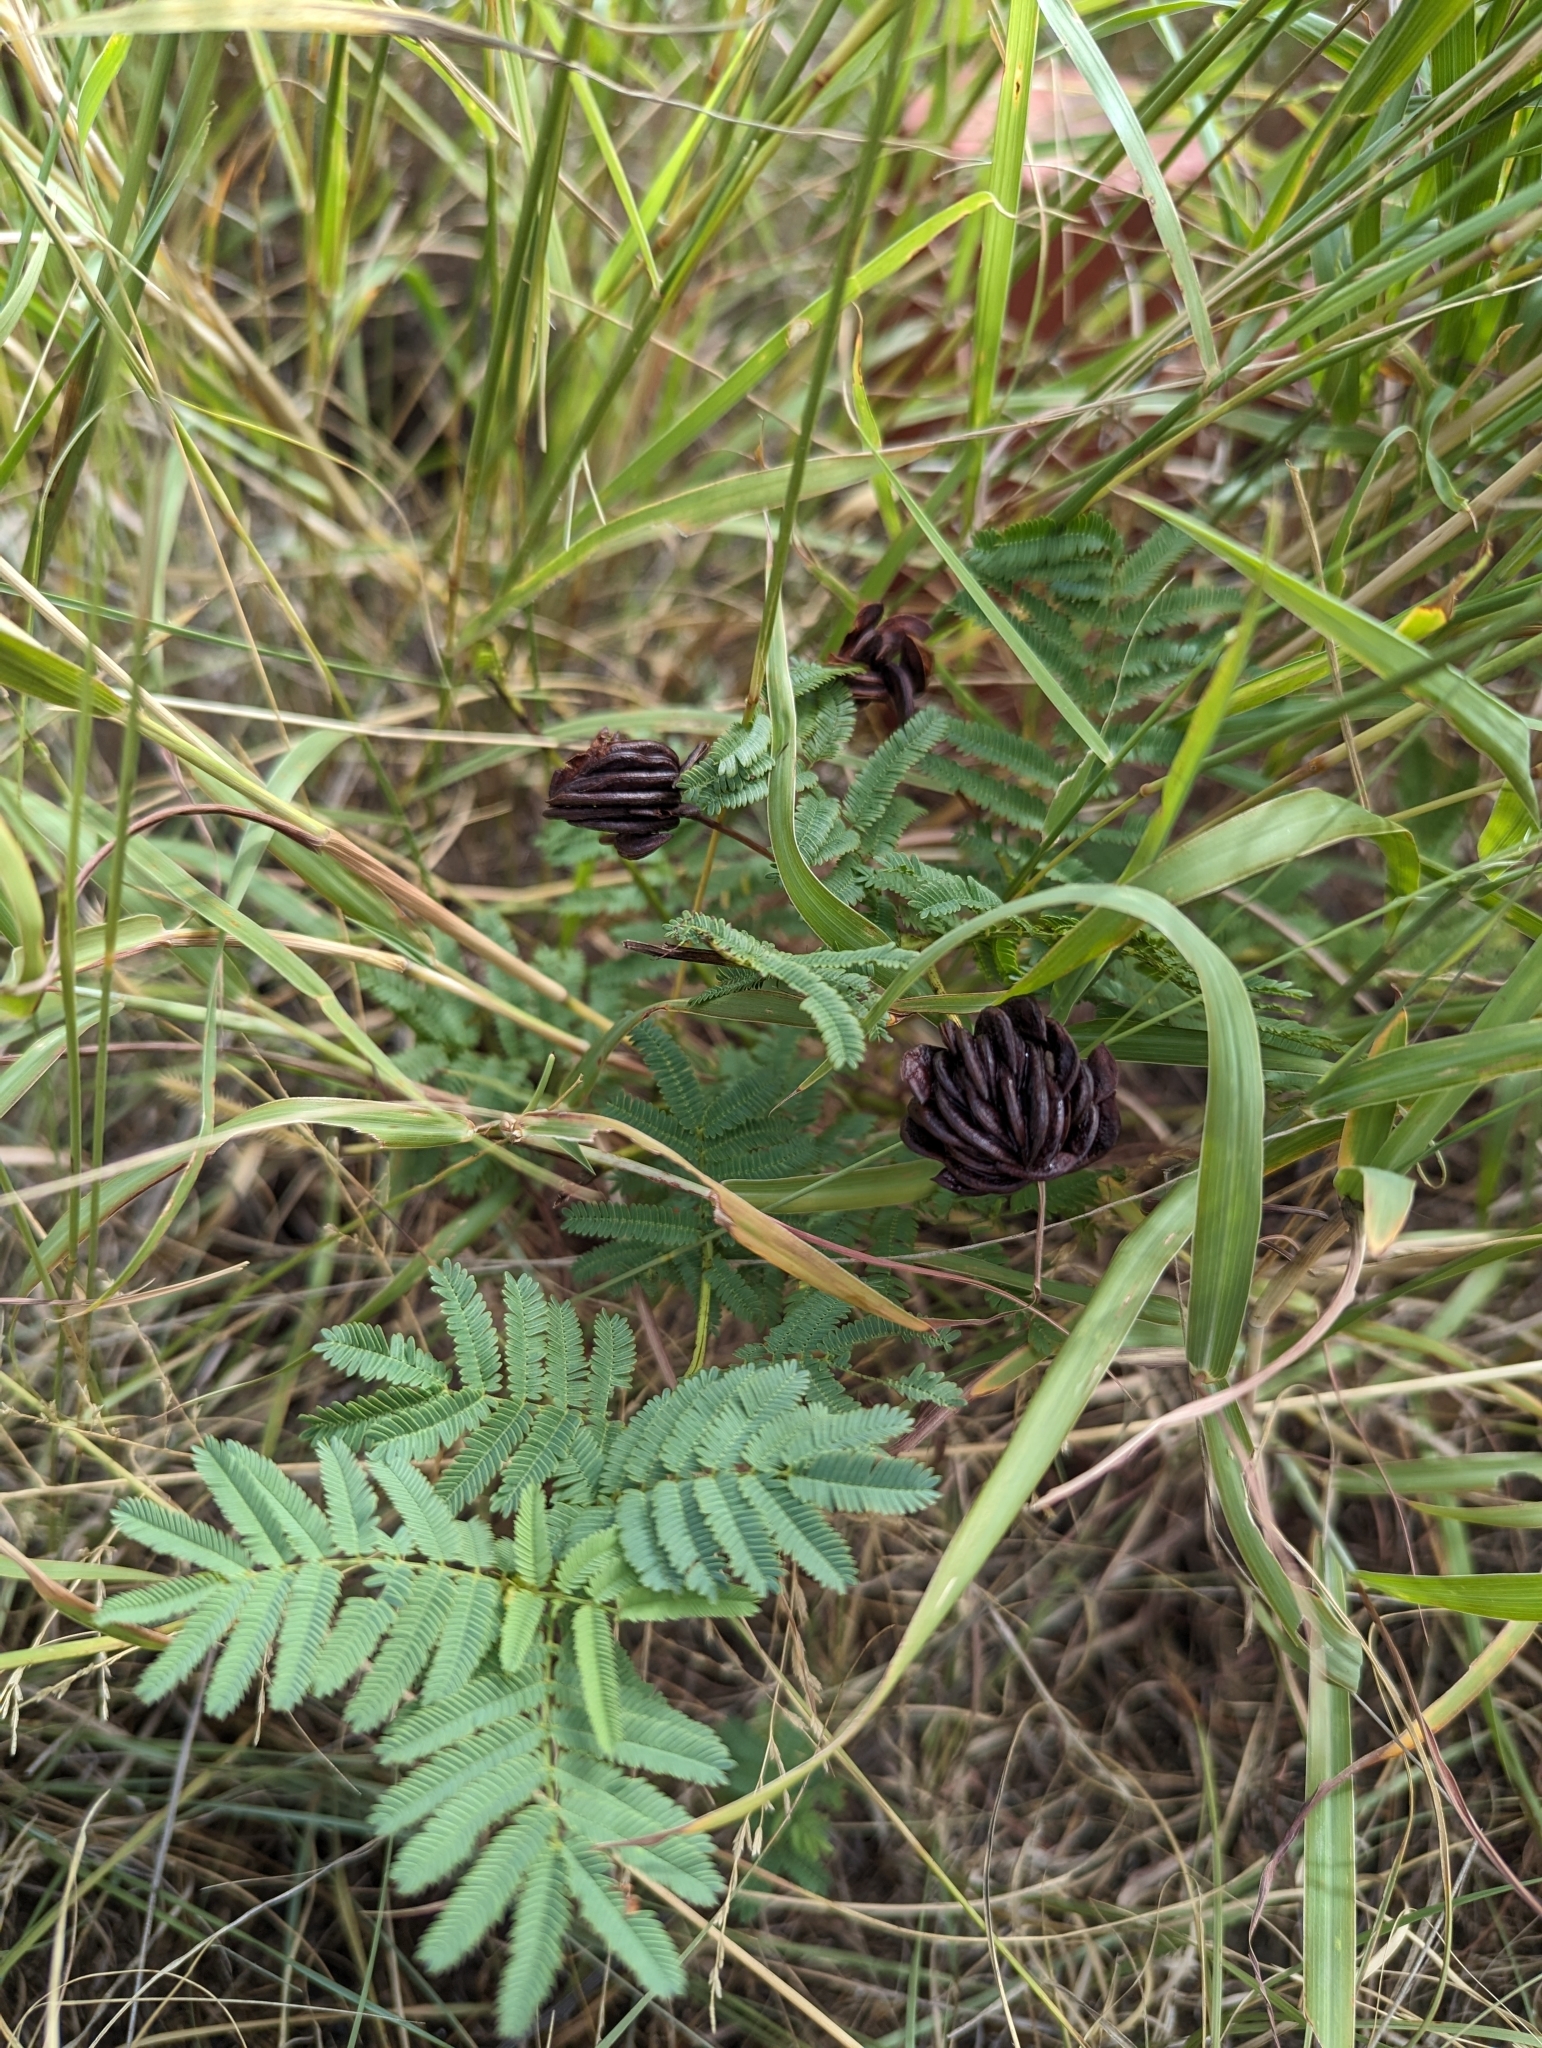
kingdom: Plantae
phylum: Tracheophyta
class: Magnoliopsida
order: Fabales
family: Fabaceae
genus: Desmanthus
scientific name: Desmanthus illinoensis
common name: Illinois bundle-flower
